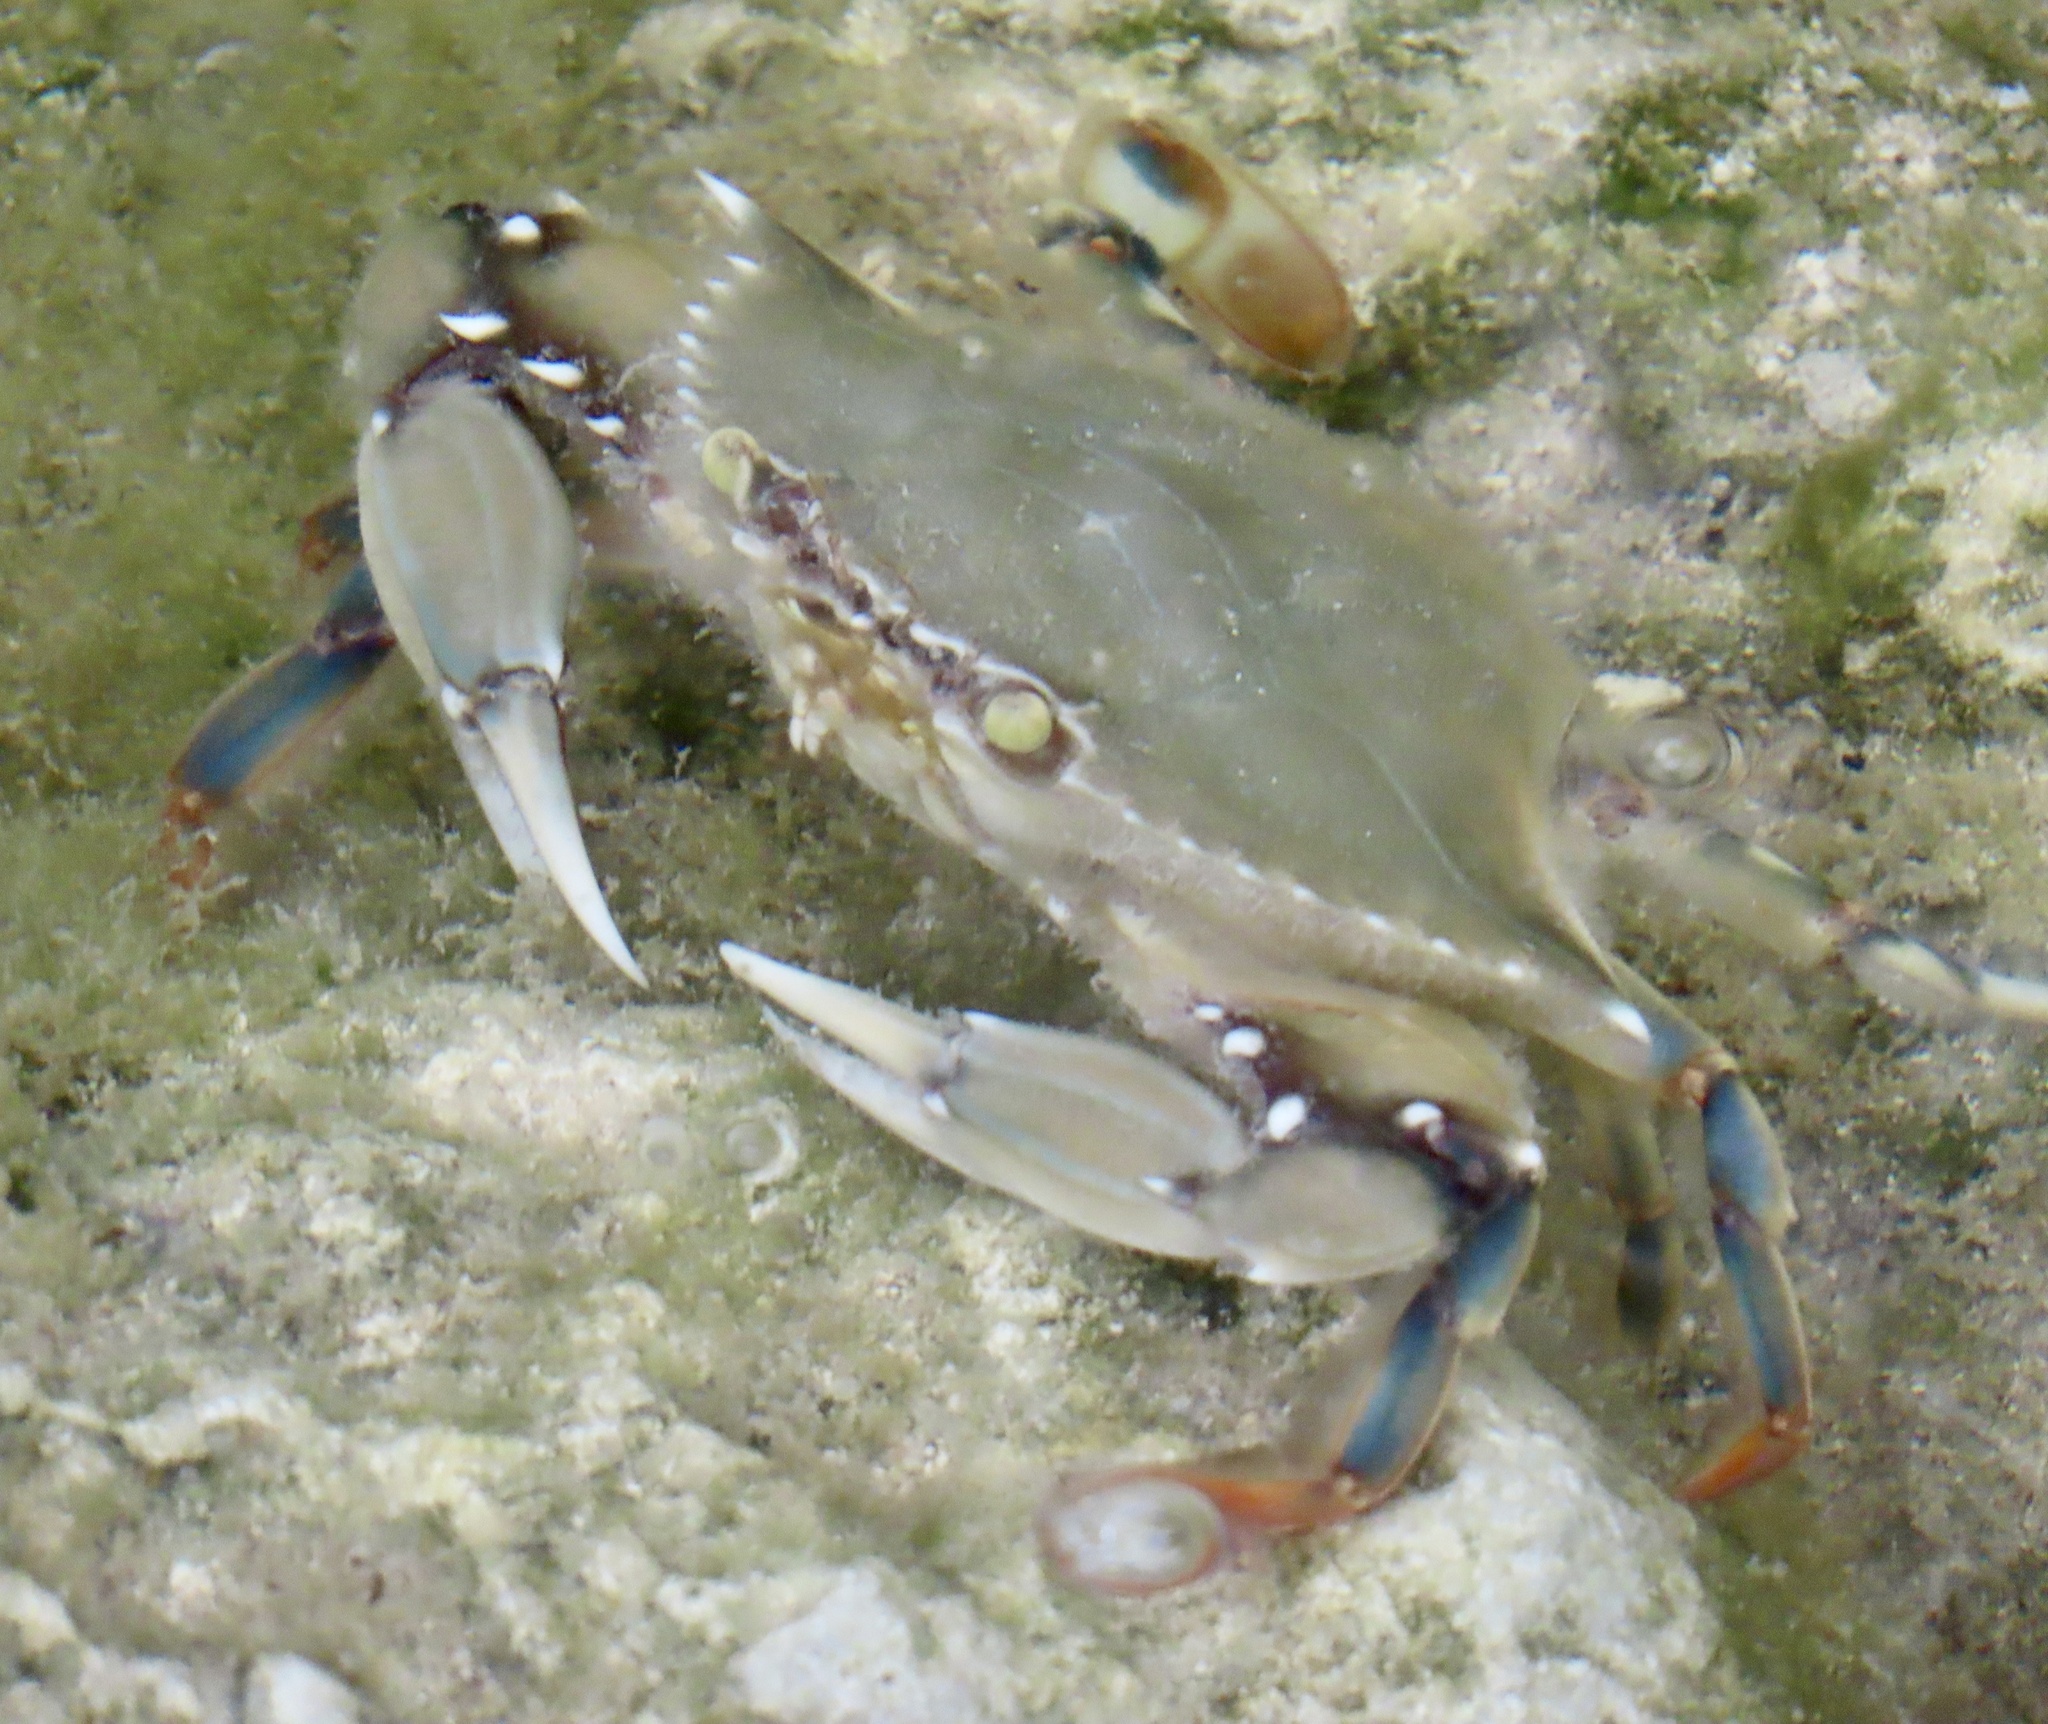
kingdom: Animalia
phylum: Arthropoda
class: Malacostraca
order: Decapoda
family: Portunidae
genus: Callinectes
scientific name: Callinectes ornatus
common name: Ornate crab
